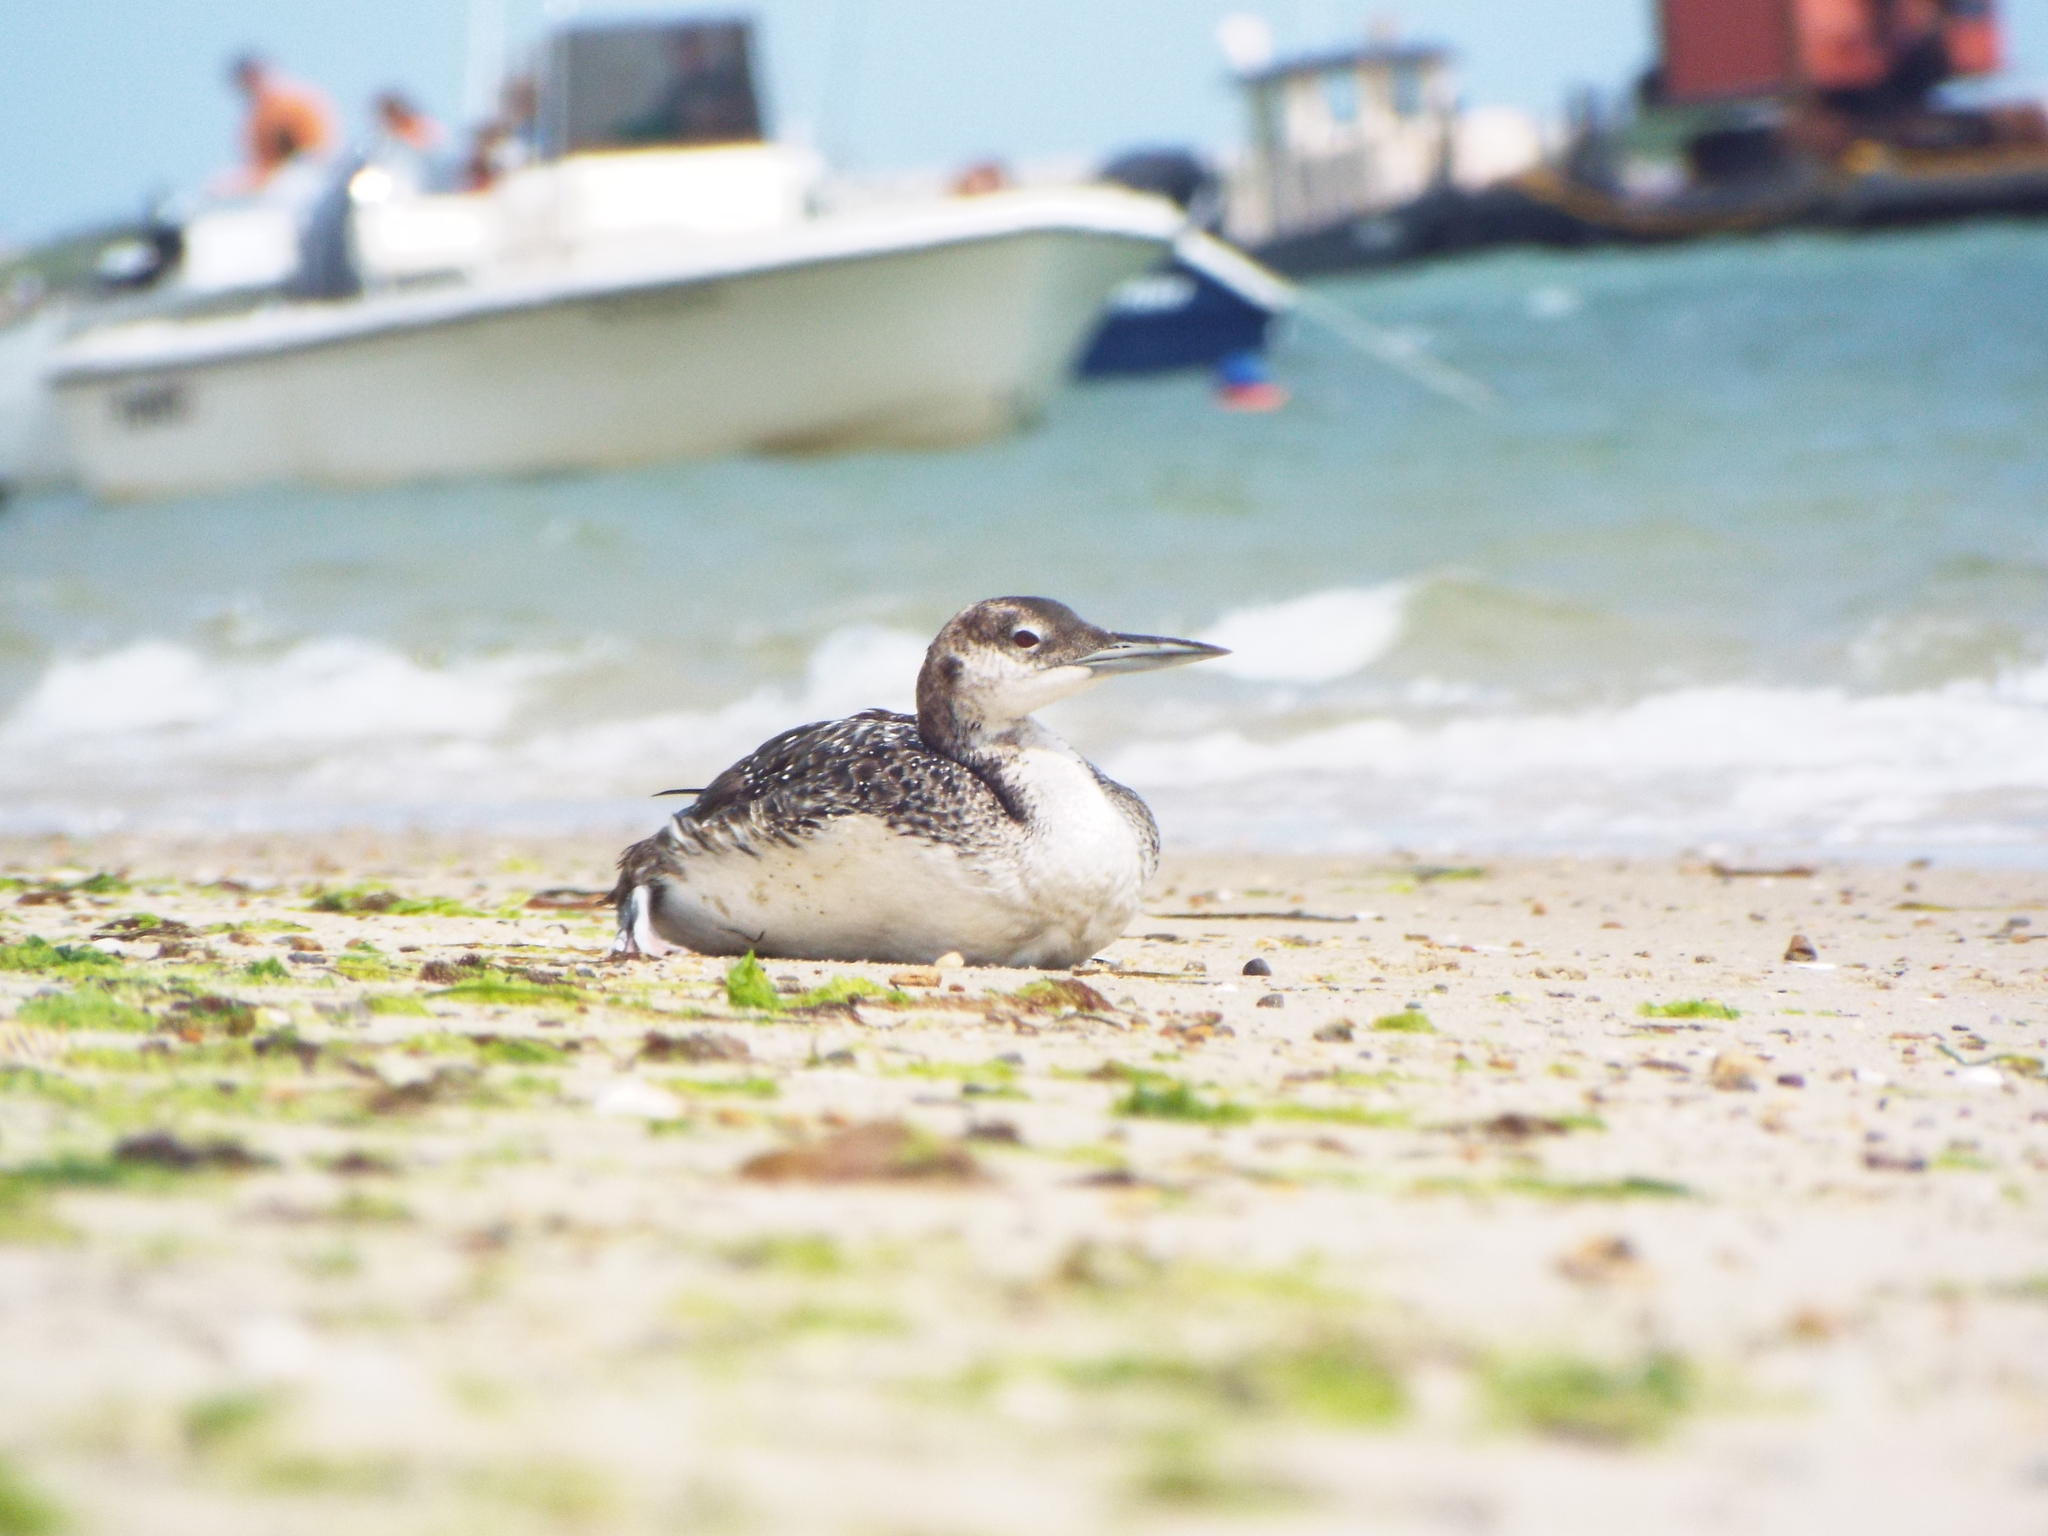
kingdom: Animalia
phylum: Chordata
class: Aves
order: Gaviiformes
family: Gaviidae
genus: Gavia
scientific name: Gavia immer
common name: Common loon
